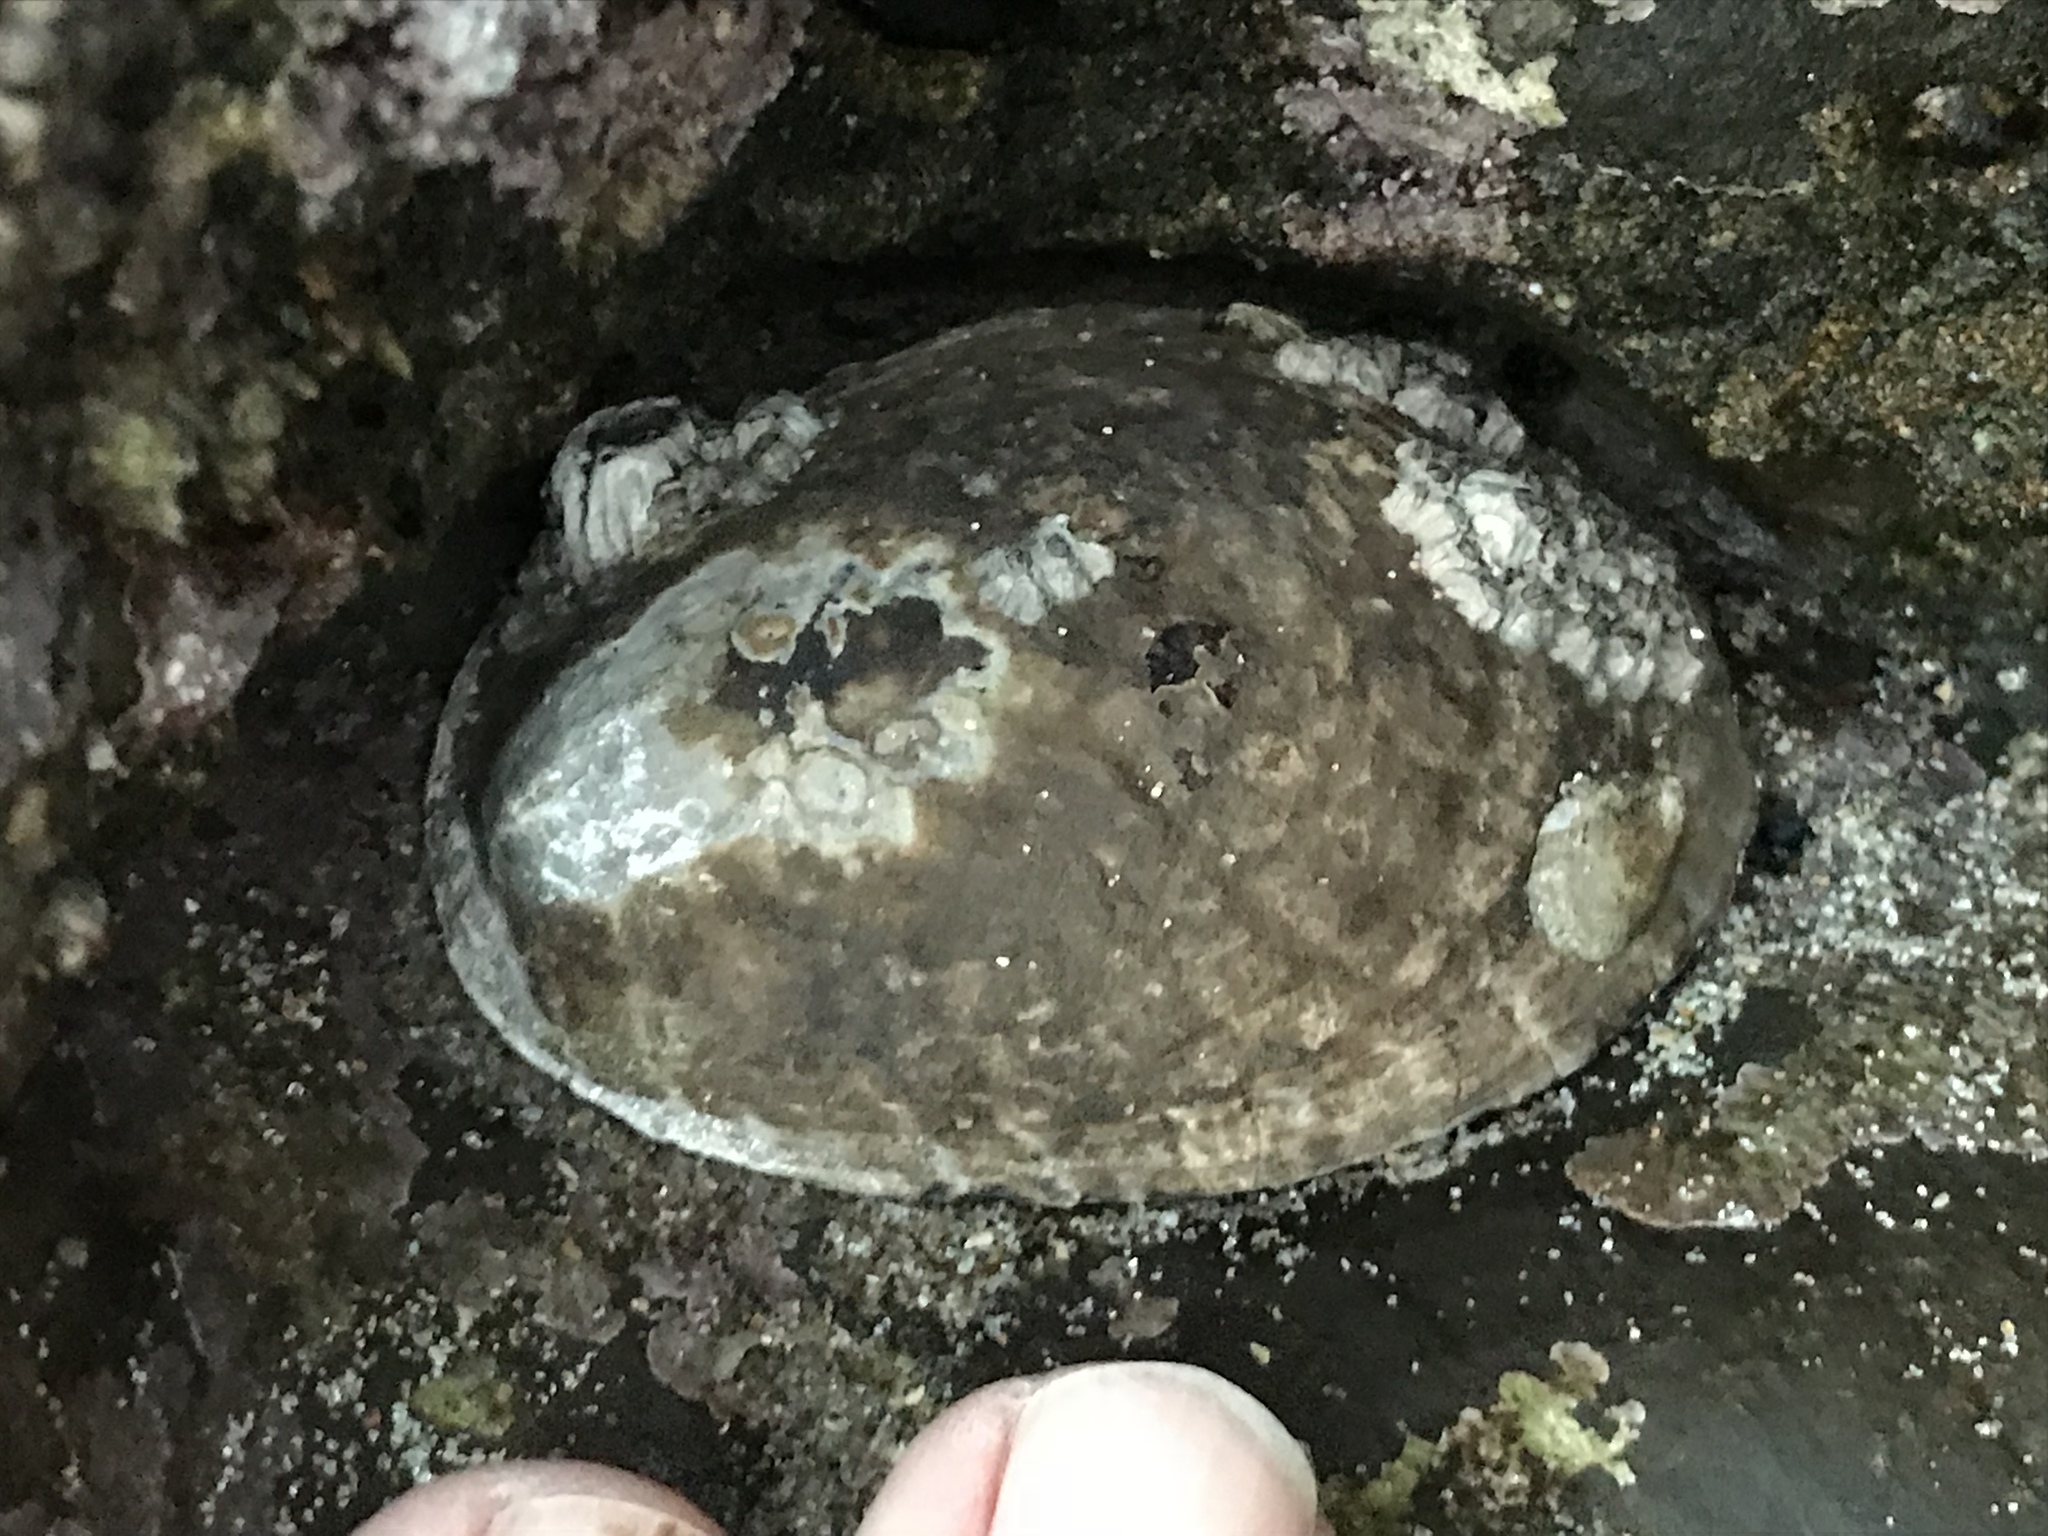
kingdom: Animalia
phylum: Mollusca
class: Gastropoda
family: Lottiidae
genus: Lottia
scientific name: Lottia gigantea
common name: Owl limpet
